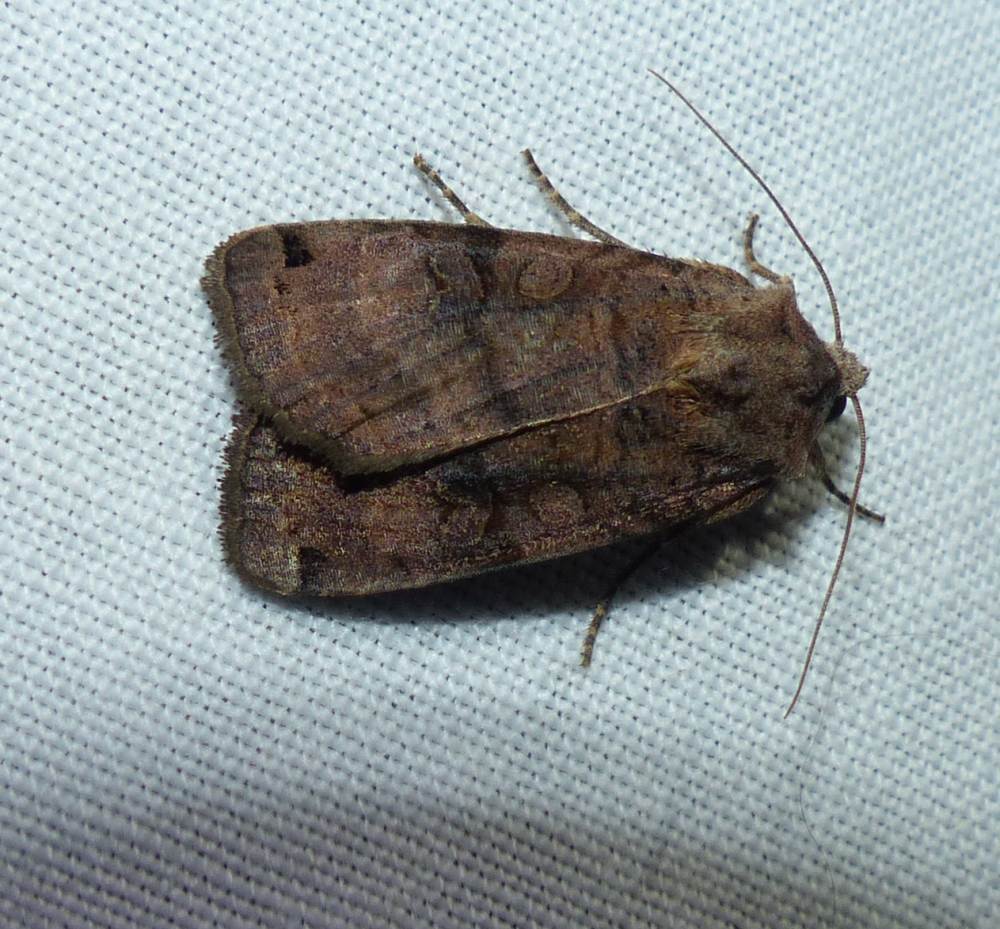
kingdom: Animalia
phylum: Arthropoda
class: Insecta
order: Lepidoptera
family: Noctuidae
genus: Xestia
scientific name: Xestia smithii
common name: Smith's dart
